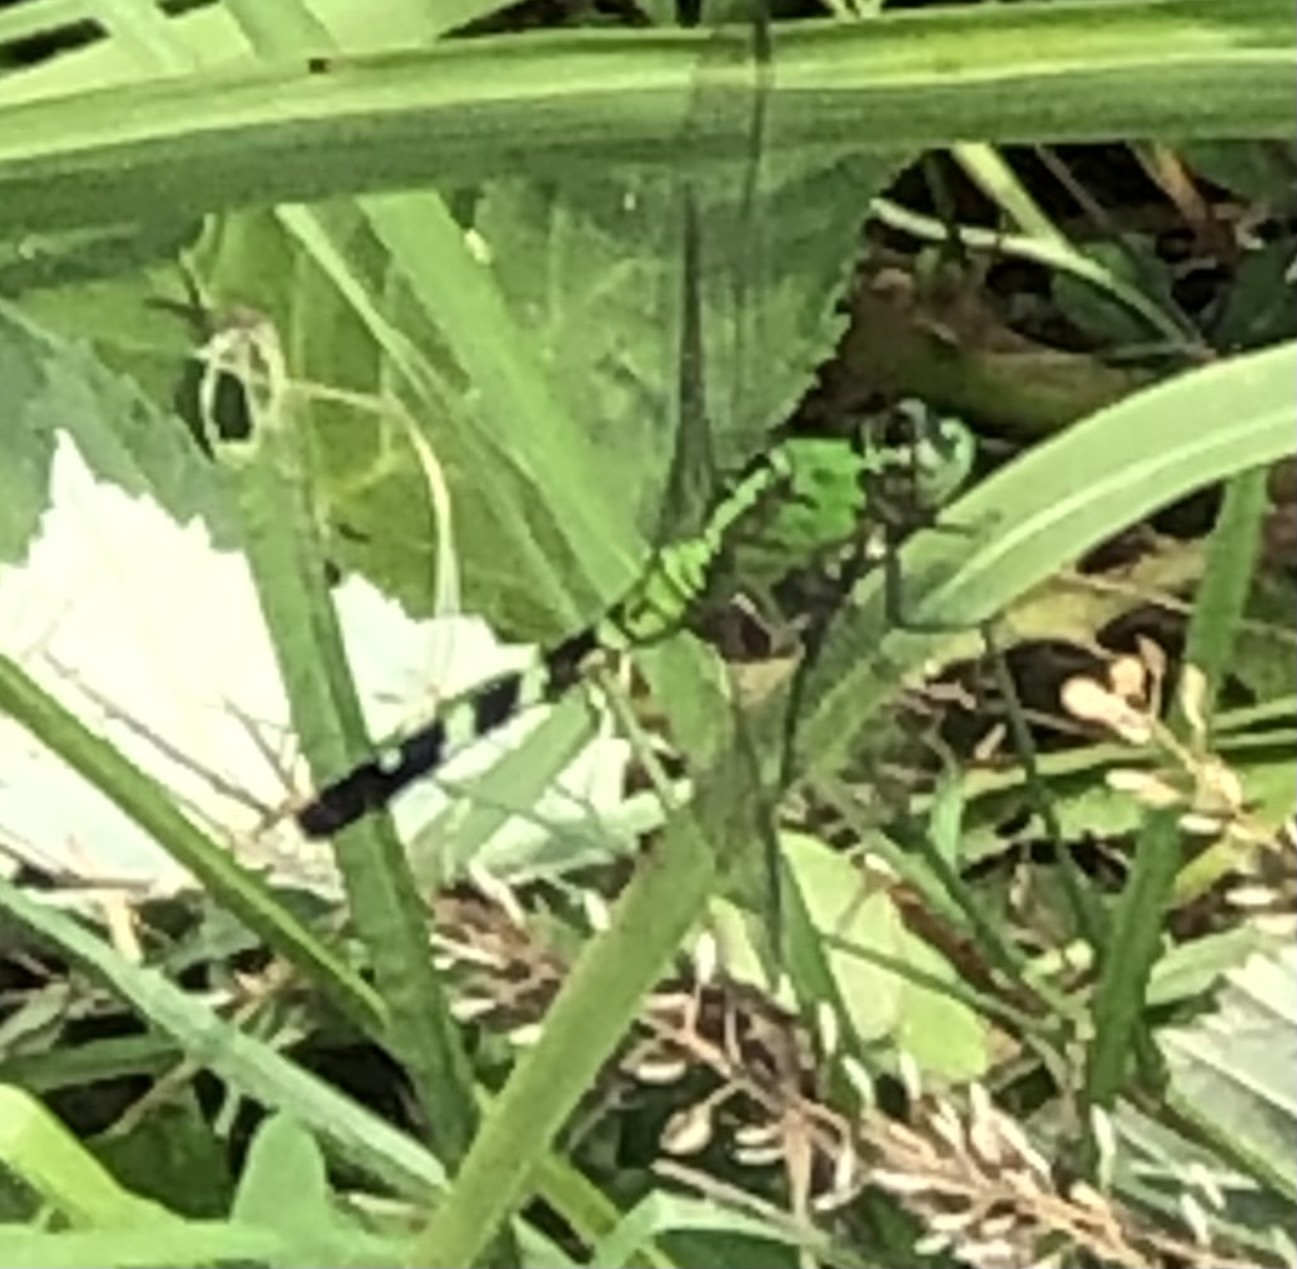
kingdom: Animalia
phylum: Arthropoda
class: Insecta
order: Odonata
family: Libellulidae
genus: Erythemis
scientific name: Erythemis simplicicollis
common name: Eastern pondhawk
